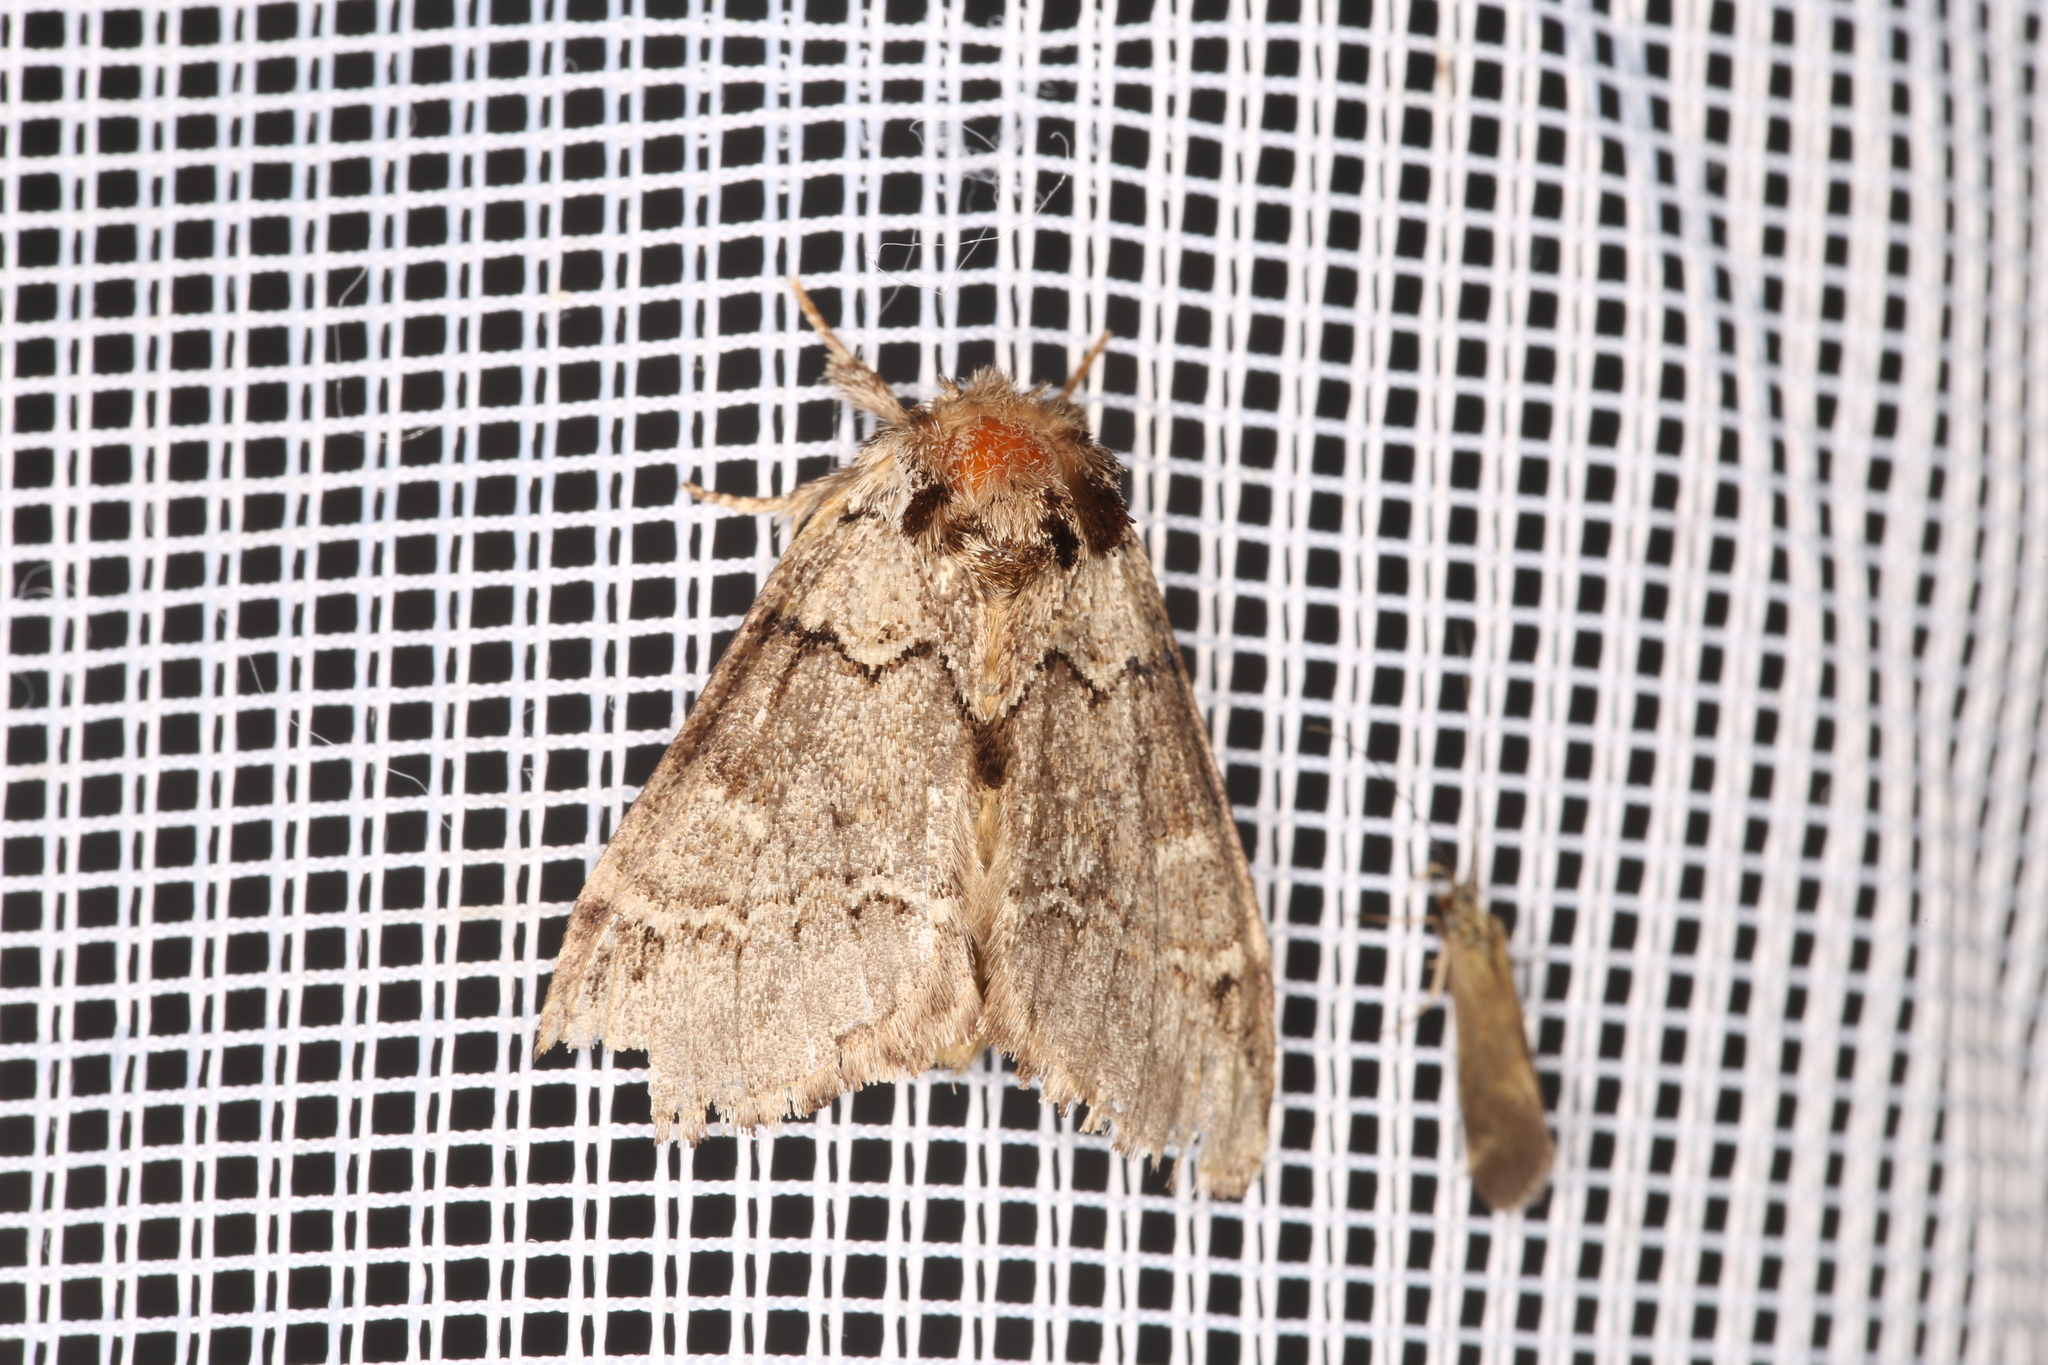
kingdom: Animalia
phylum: Arthropoda
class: Insecta
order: Lepidoptera
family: Notodontidae
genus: Drymonia
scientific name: Drymonia obliterata
